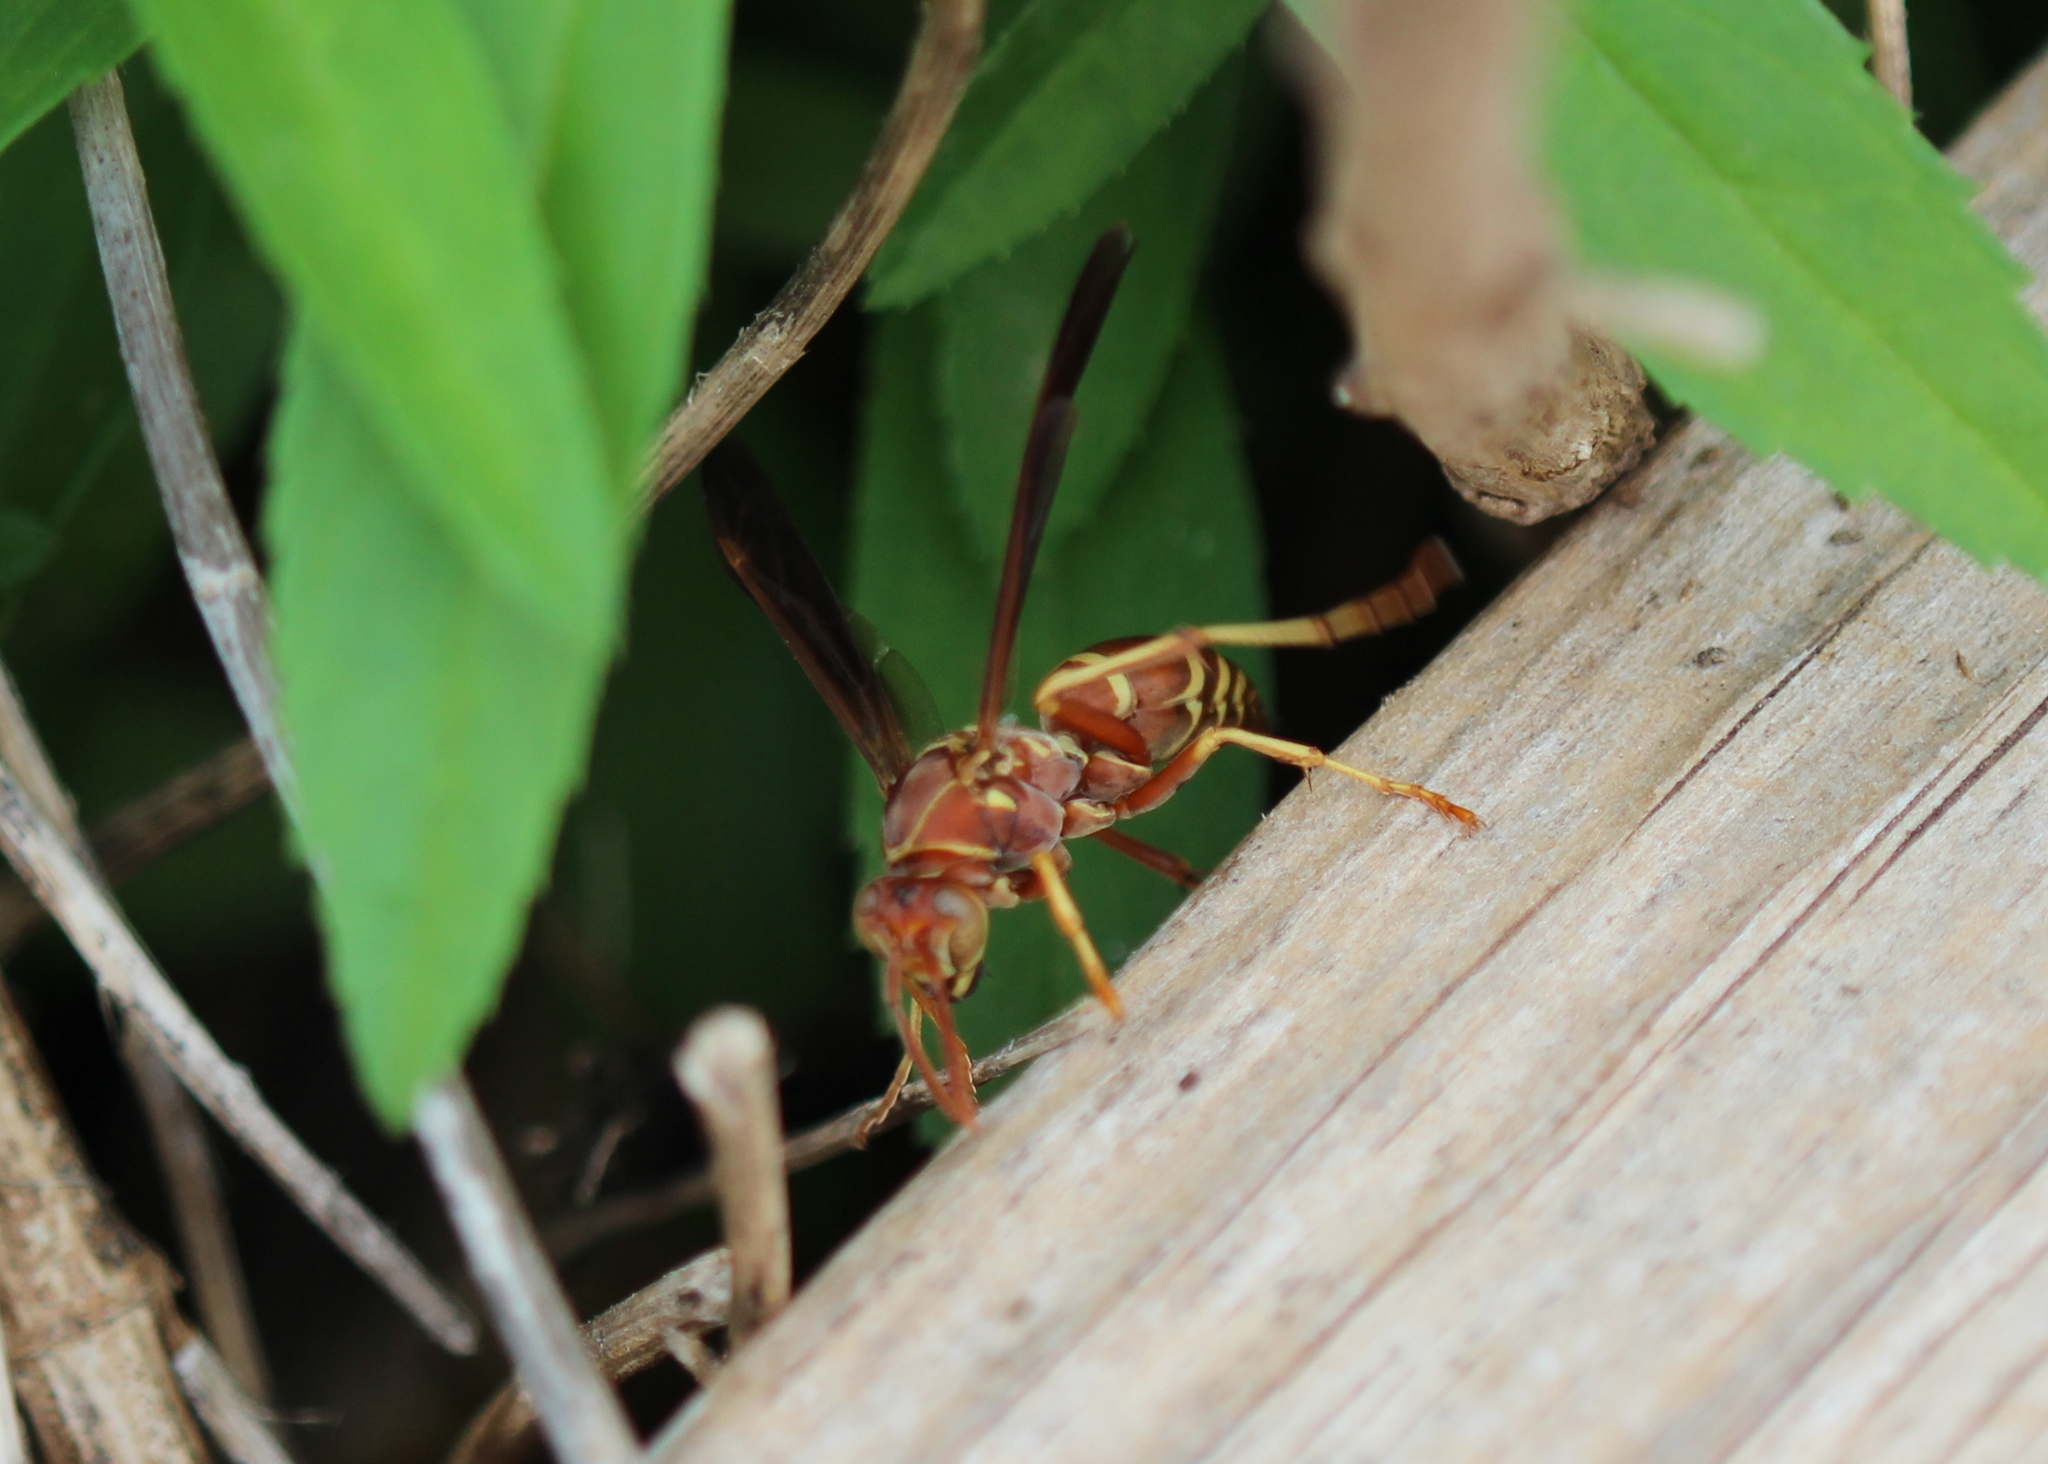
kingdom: Animalia
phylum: Arthropoda
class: Insecta
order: Hymenoptera
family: Eumenidae
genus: Polistes
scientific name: Polistes bellicosus
